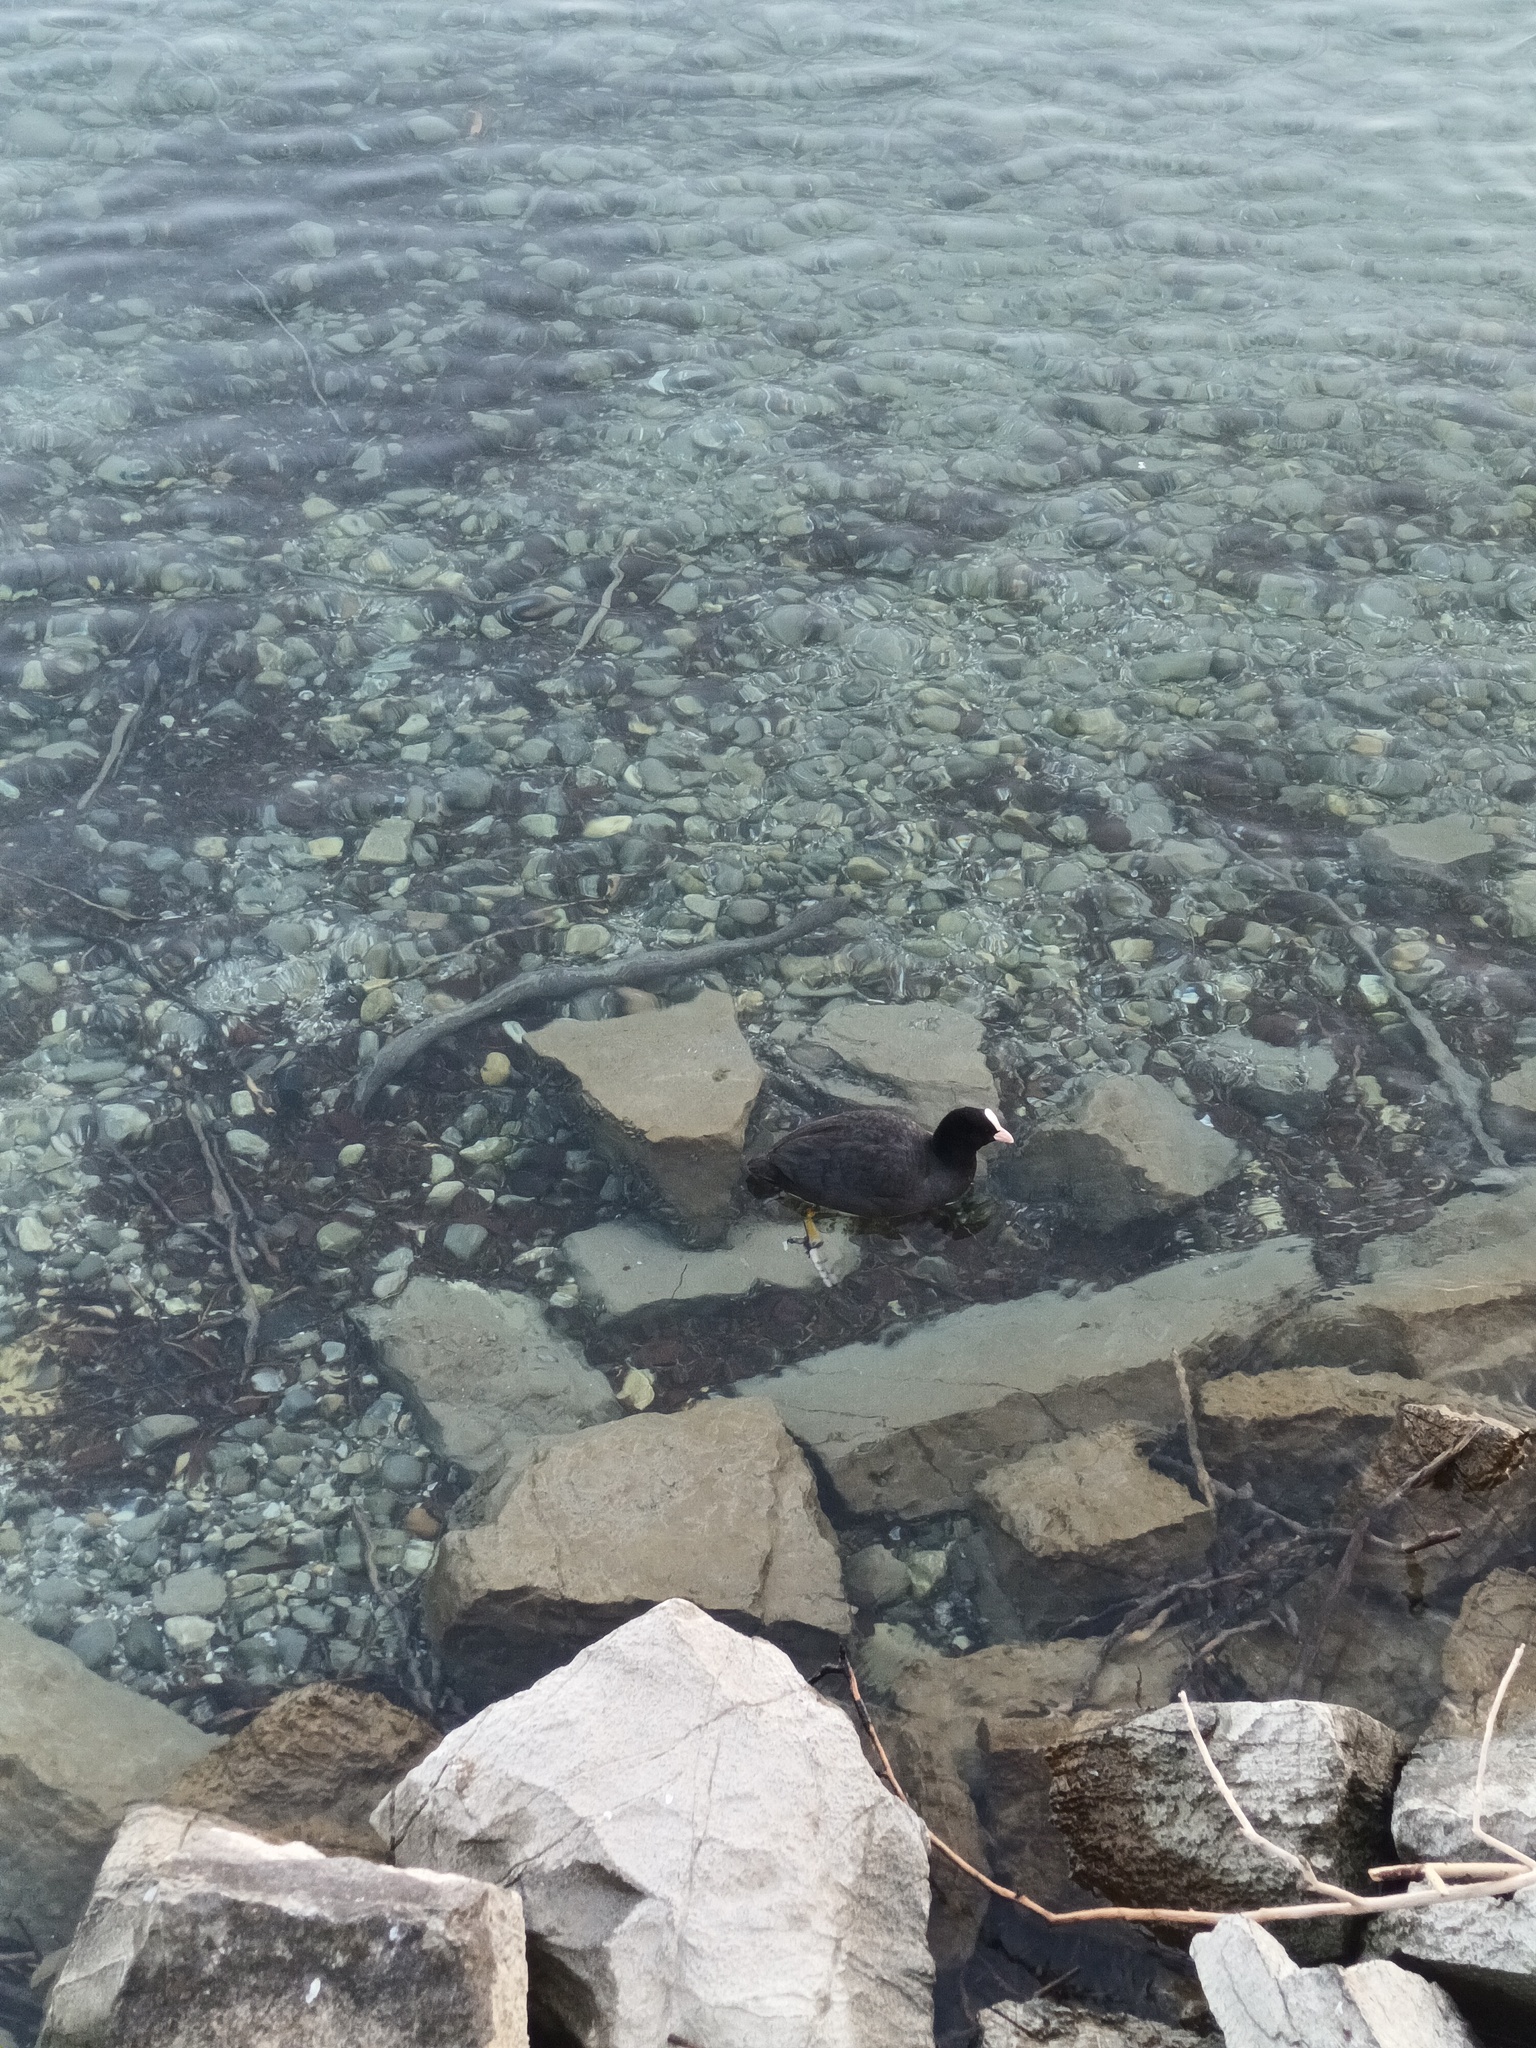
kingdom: Animalia
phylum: Chordata
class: Aves
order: Gruiformes
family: Rallidae
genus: Fulica
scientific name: Fulica atra
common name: Eurasian coot
